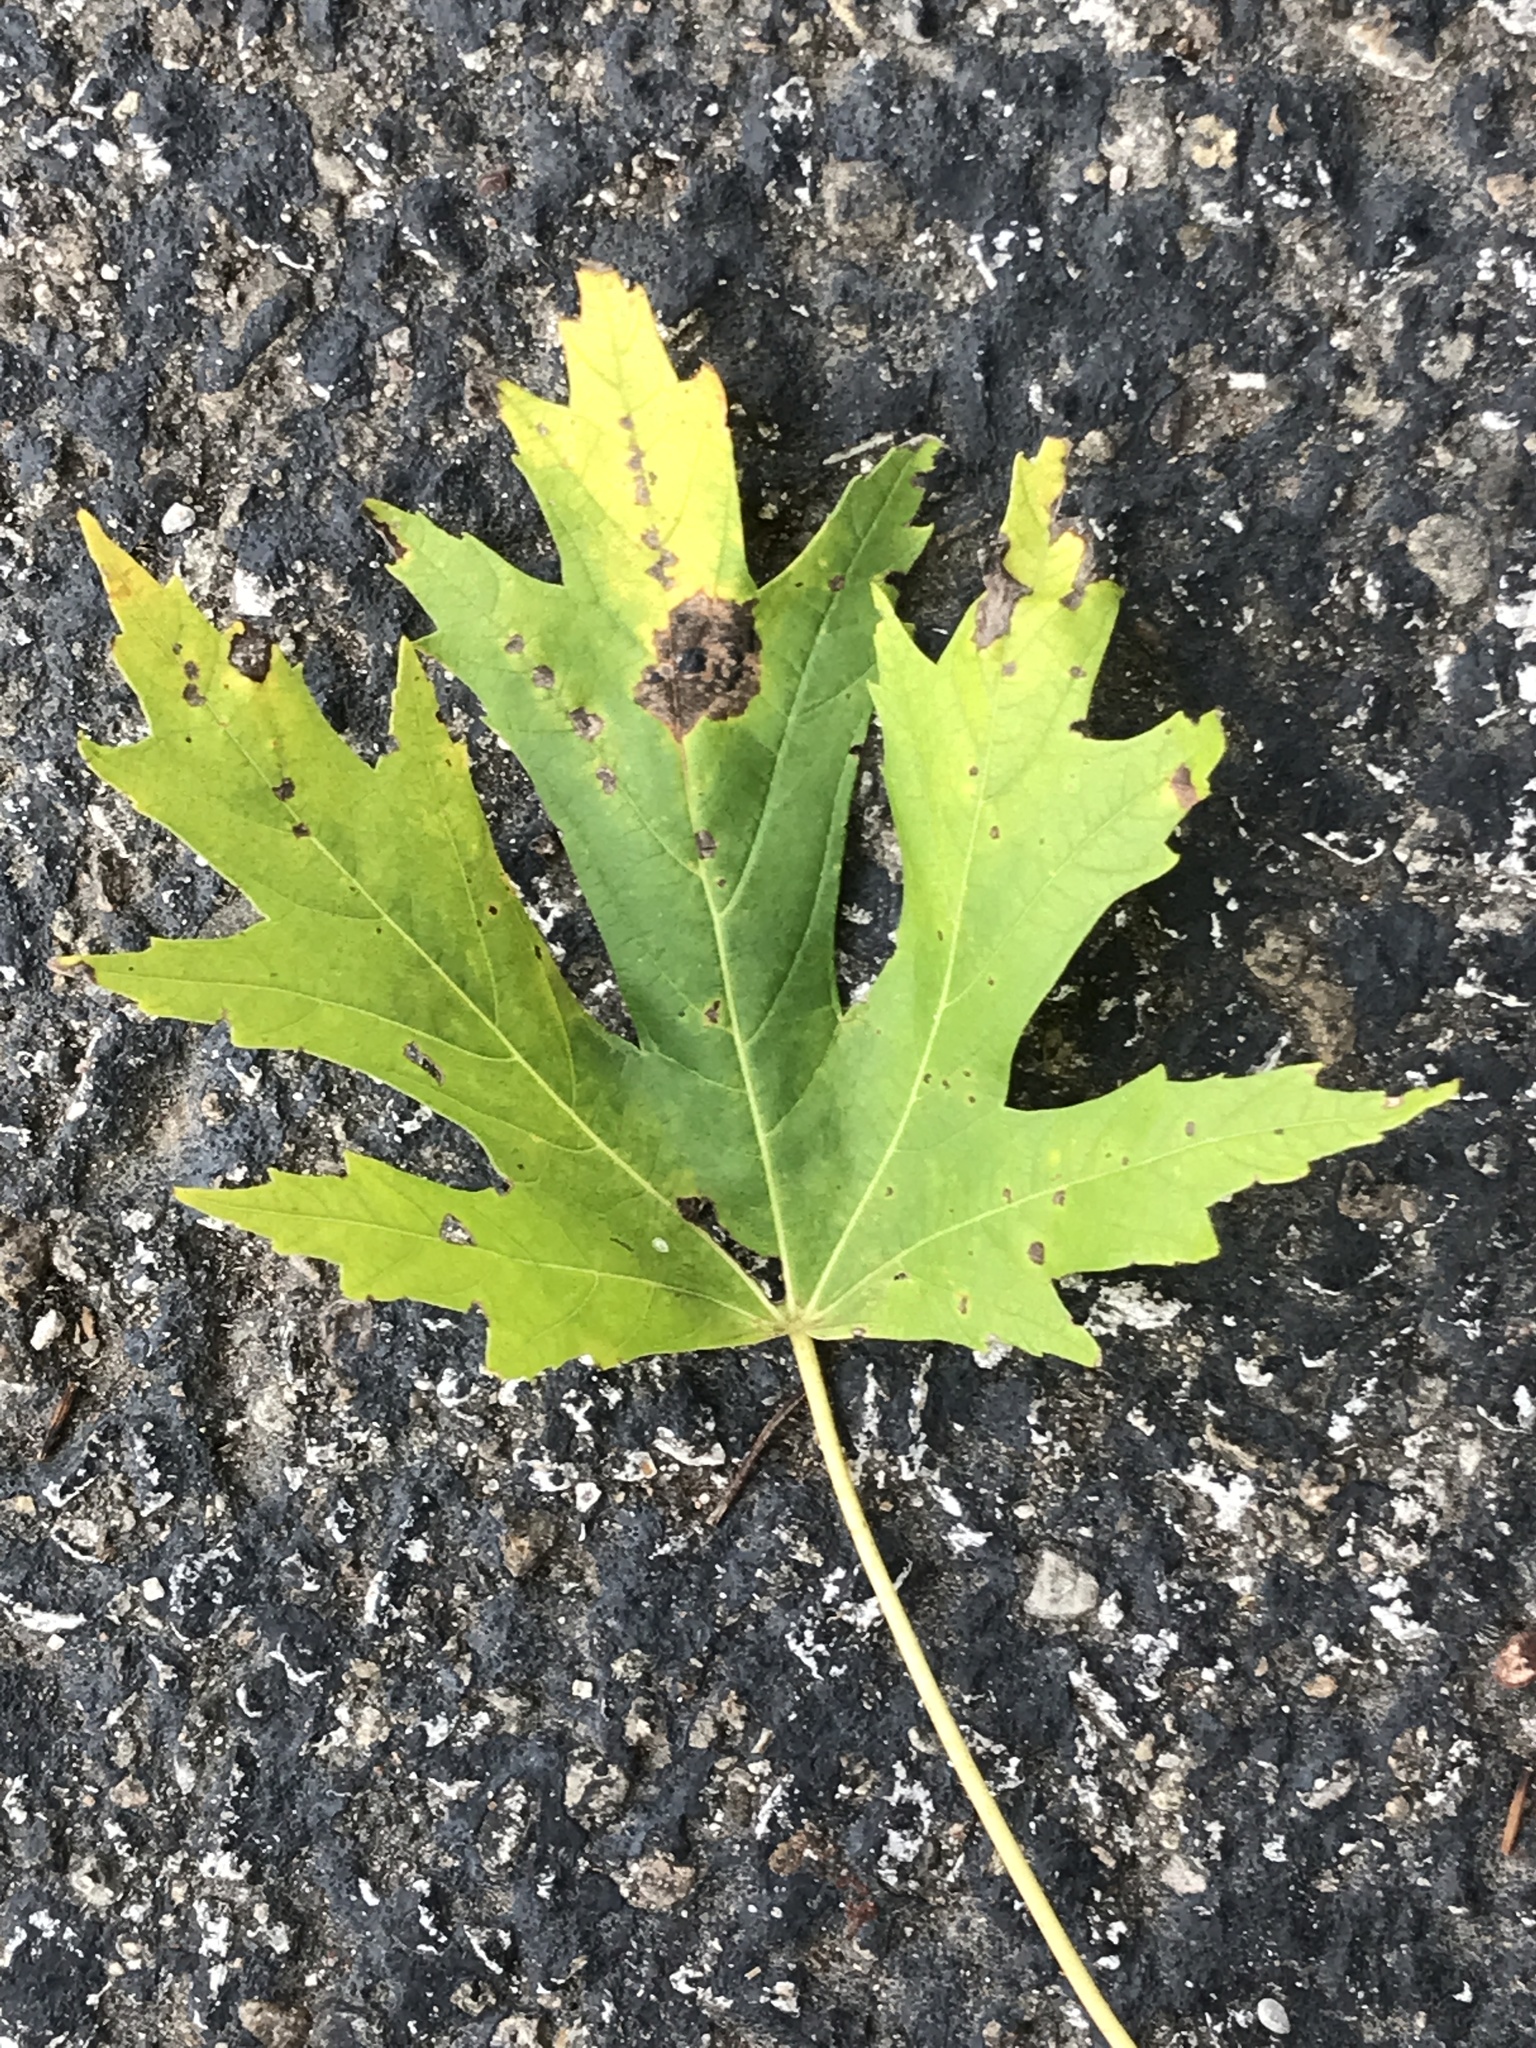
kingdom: Plantae
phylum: Tracheophyta
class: Magnoliopsida
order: Sapindales
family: Sapindaceae
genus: Acer
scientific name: Acer saccharinum
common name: Silver maple
